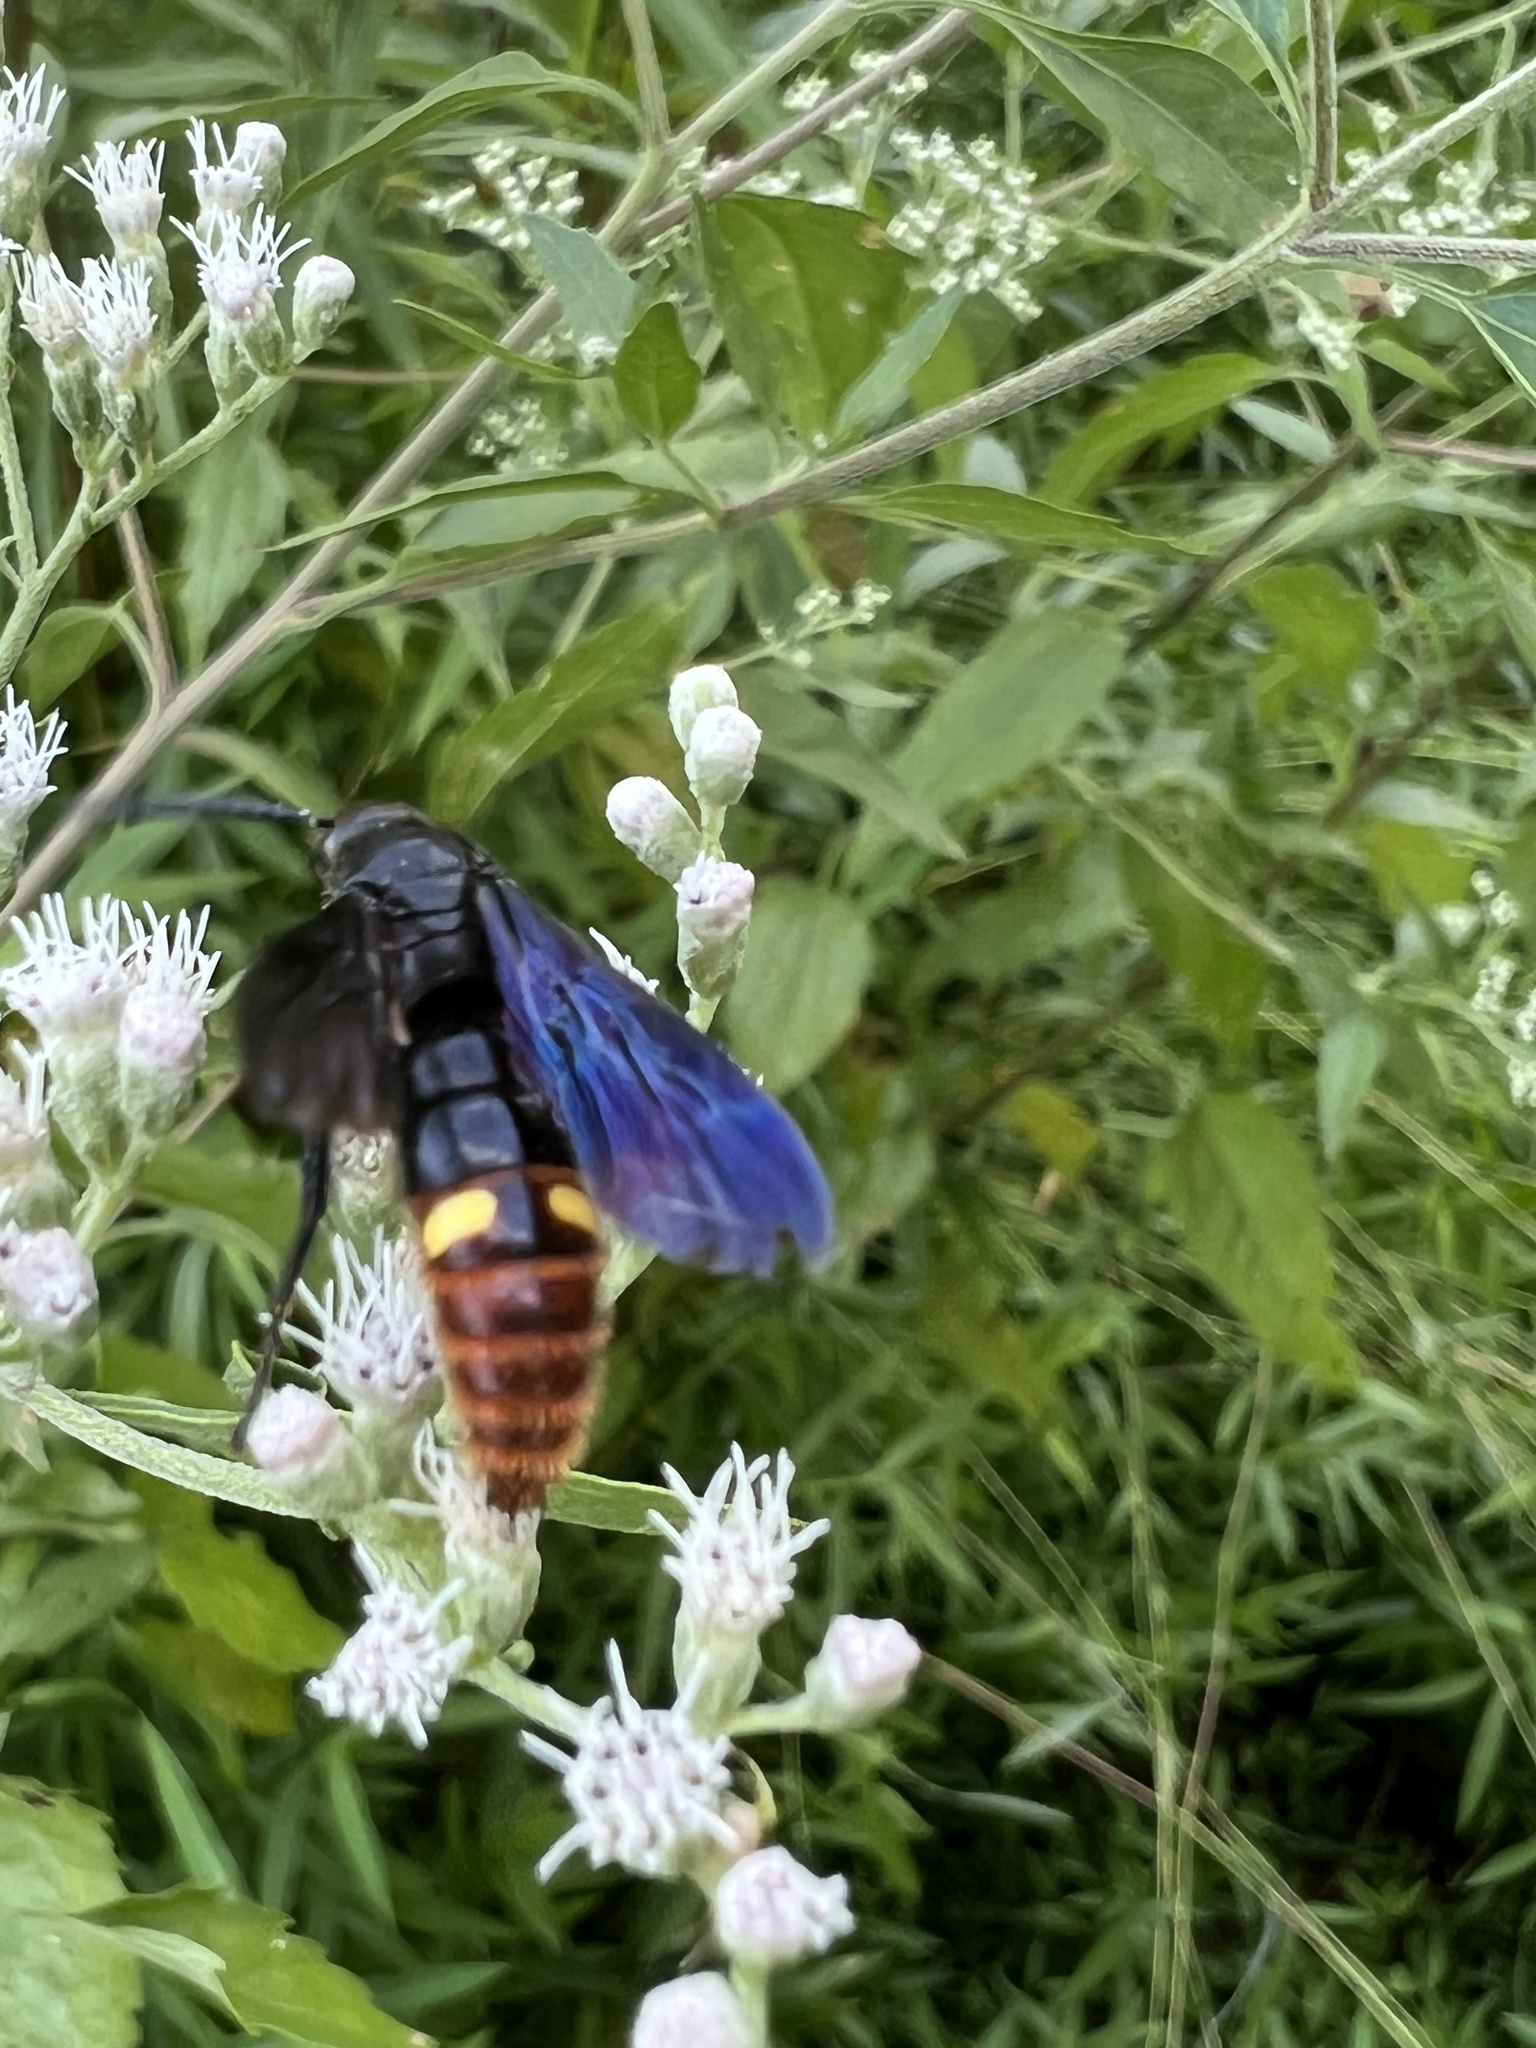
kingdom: Animalia
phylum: Arthropoda
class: Insecta
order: Hymenoptera
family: Scoliidae
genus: Scolia
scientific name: Scolia dubia
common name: Blue-winged scoliid wasp
